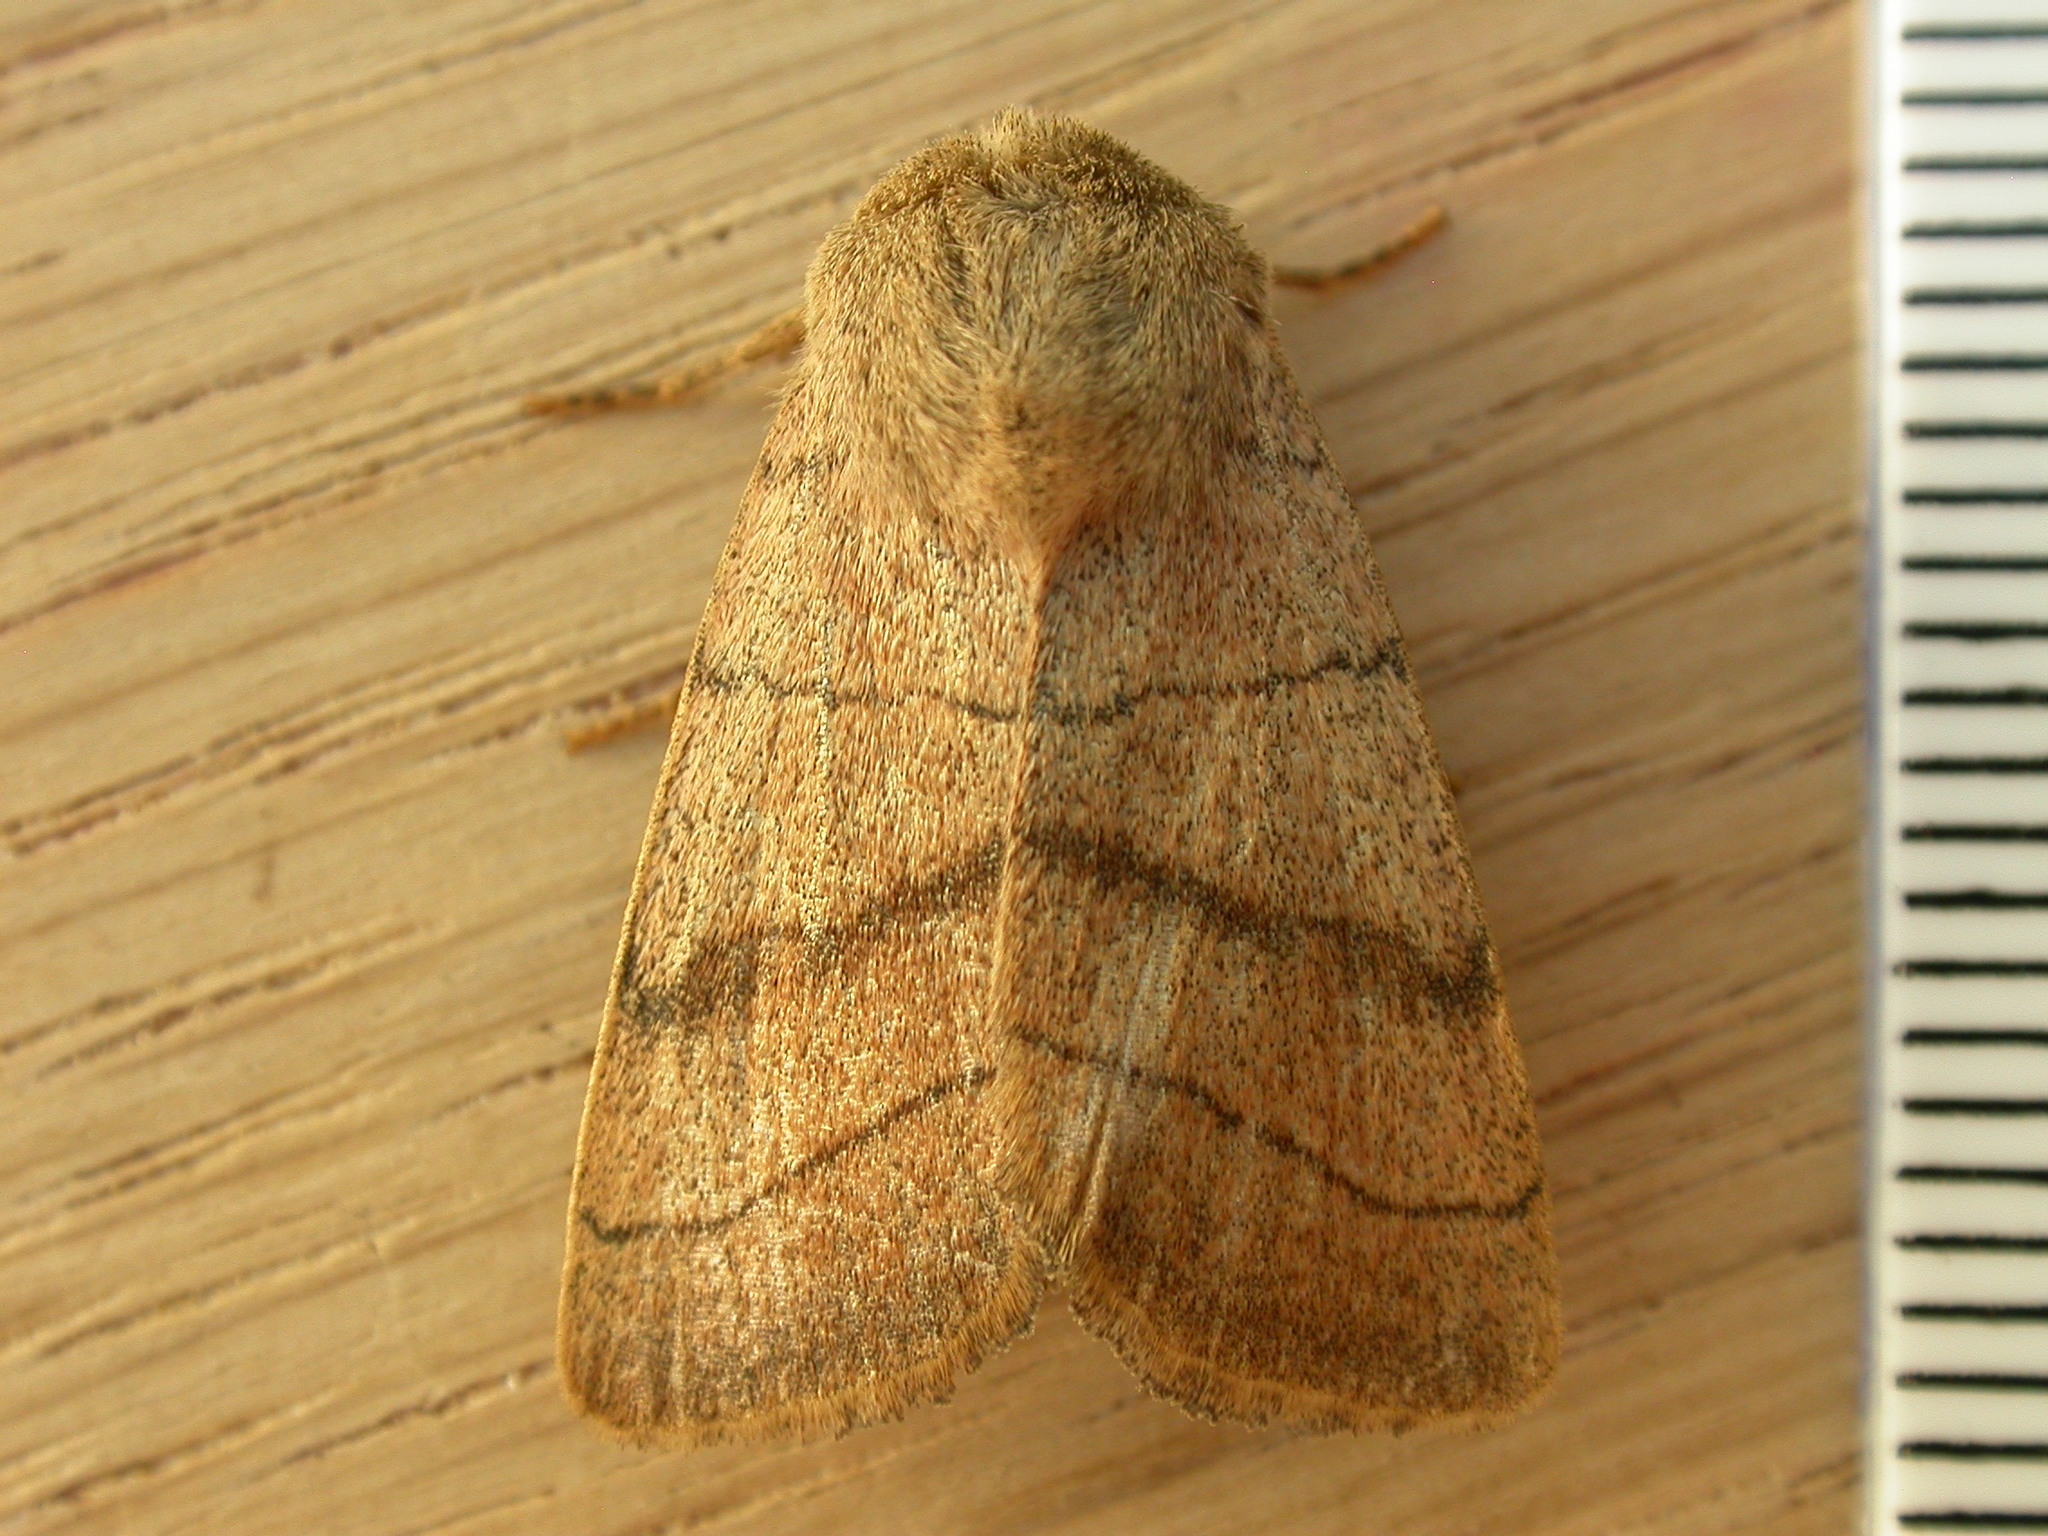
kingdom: Animalia
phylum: Arthropoda
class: Insecta
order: Lepidoptera
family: Noctuidae
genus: Charanyca
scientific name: Charanyca trigrammica
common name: Treble lines
